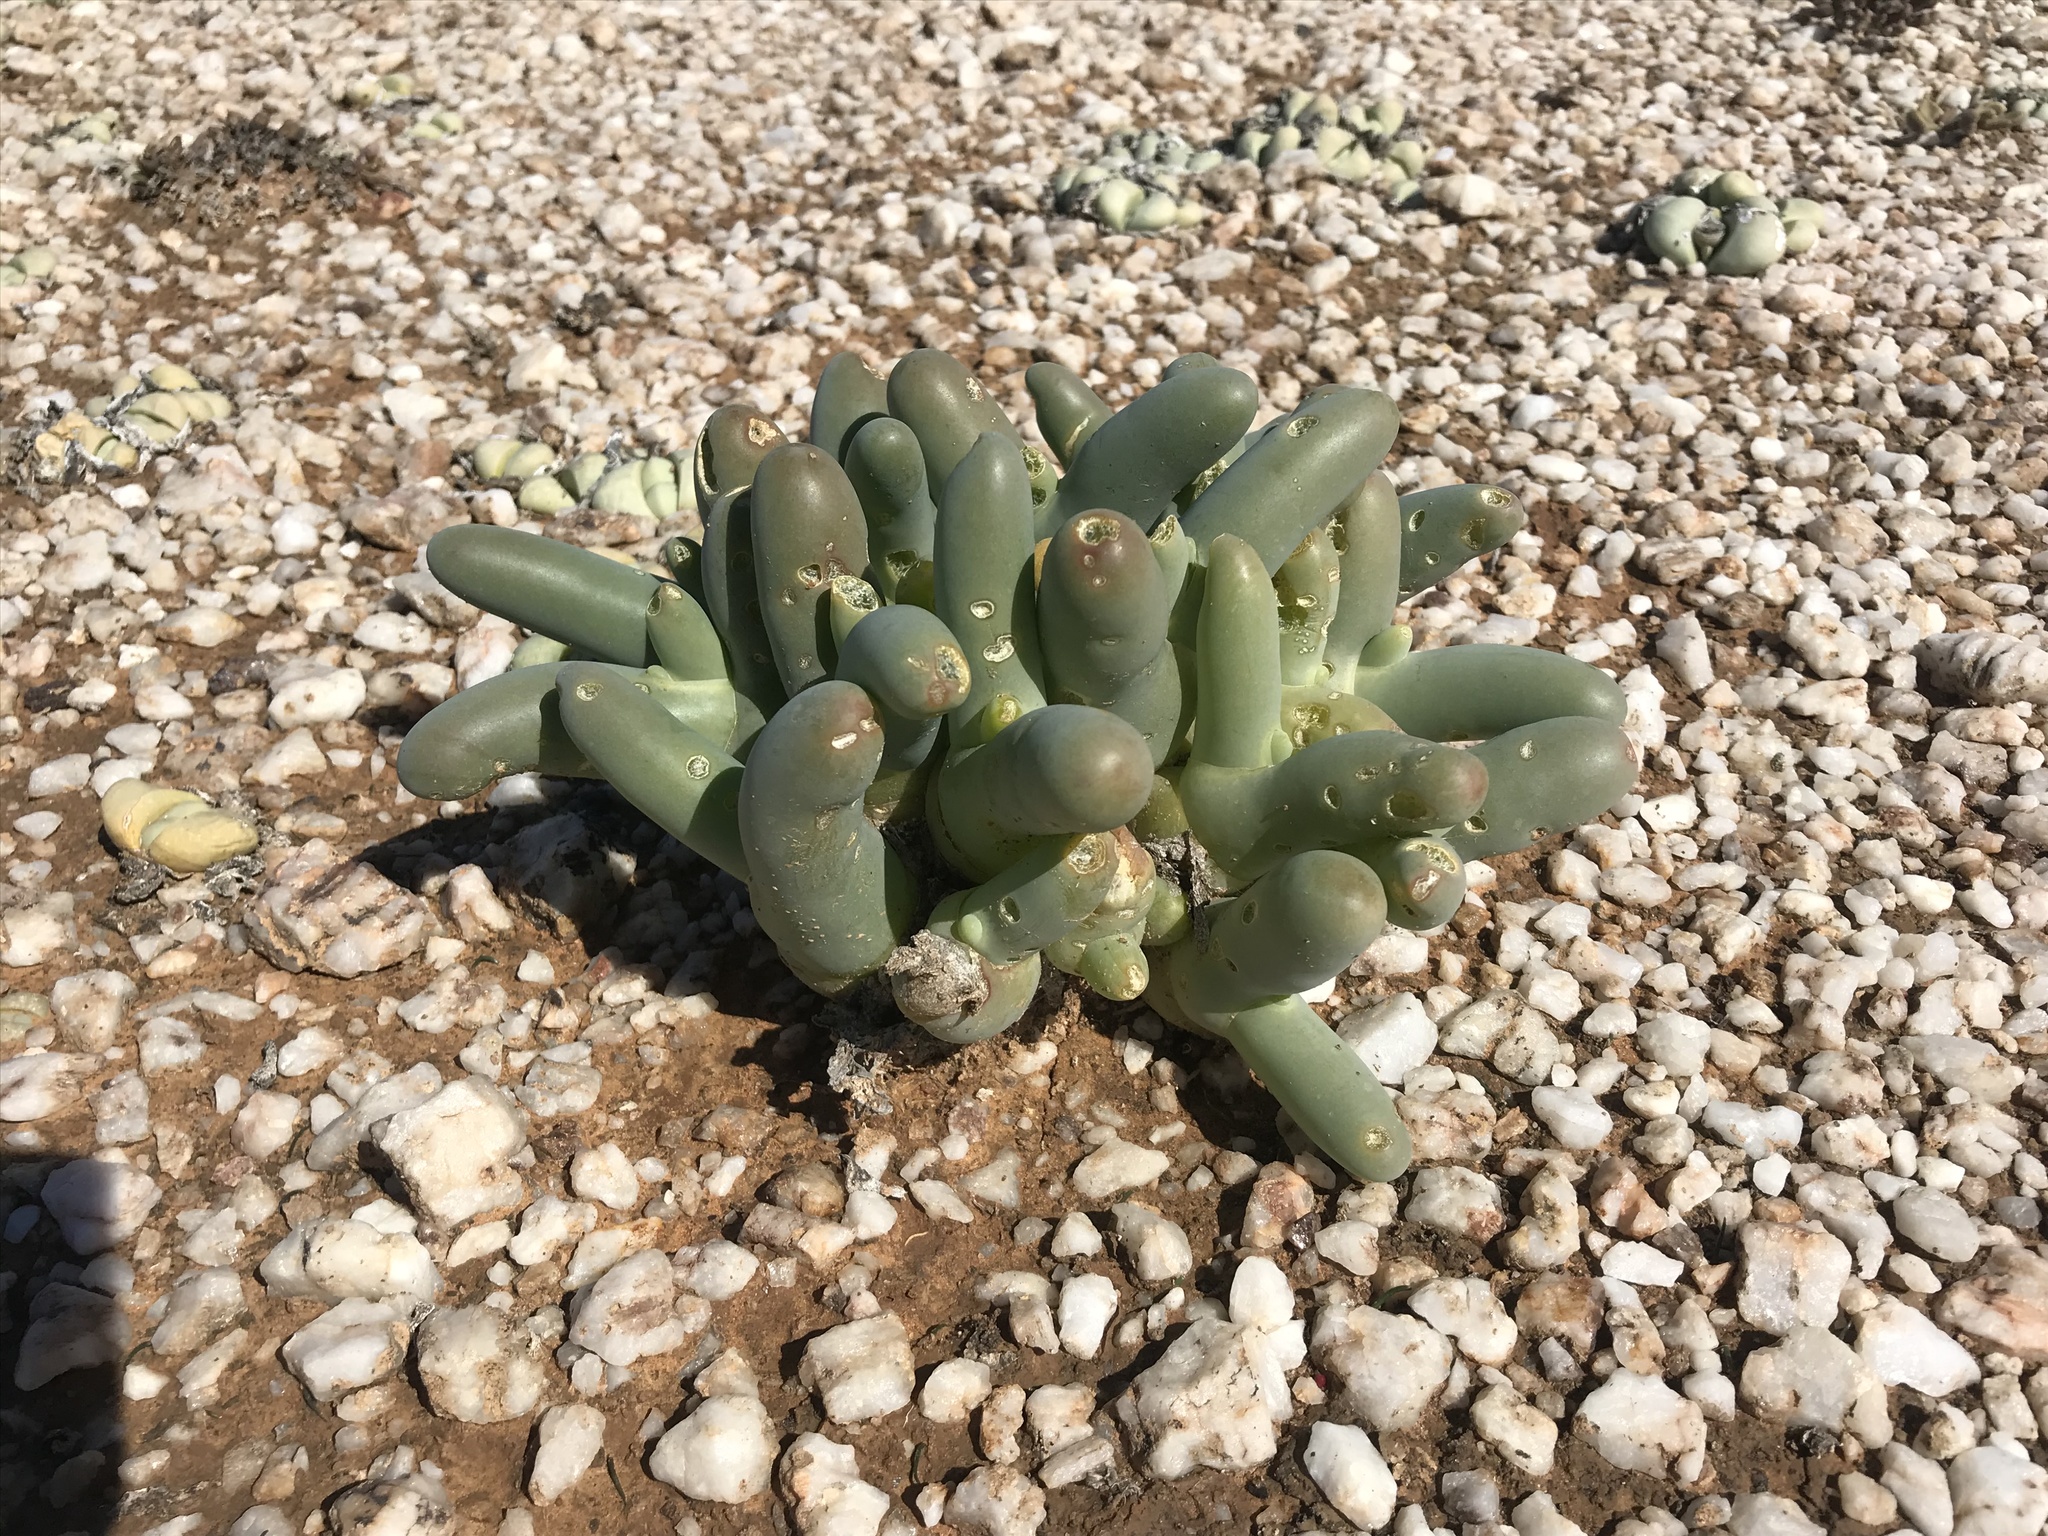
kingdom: Plantae
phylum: Tracheophyta
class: Magnoliopsida
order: Caryophyllales
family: Aizoaceae
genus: Mesembryanthemum
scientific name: Mesembryanthemum digitatum
